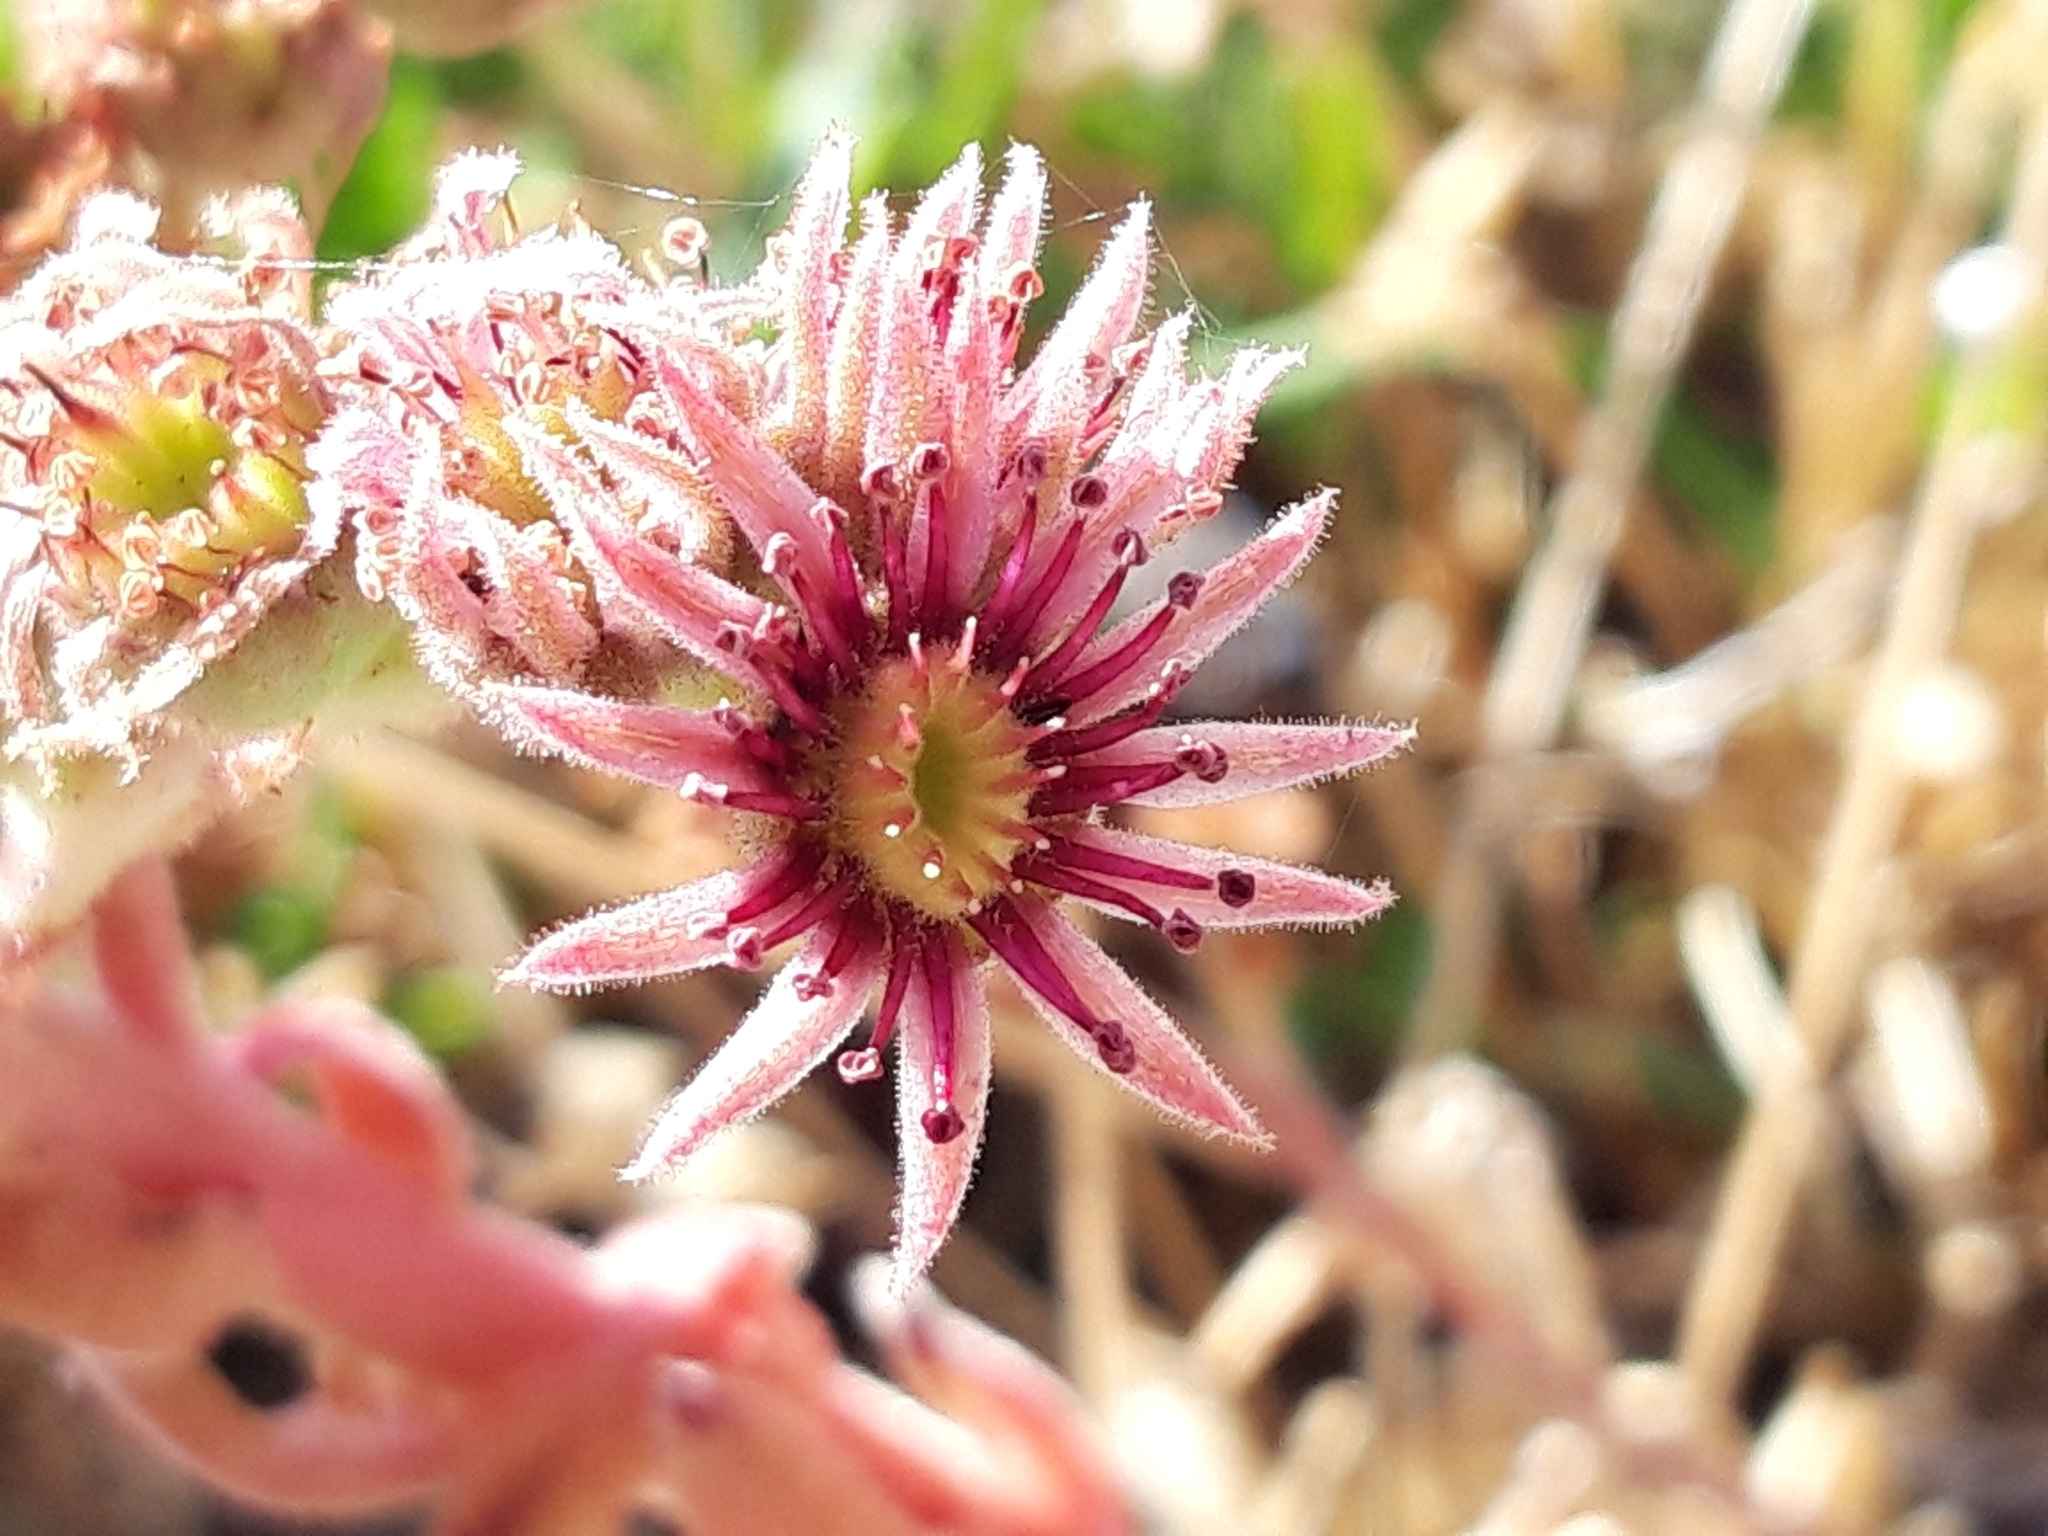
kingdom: Plantae
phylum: Tracheophyta
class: Magnoliopsida
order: Saxifragales
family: Crassulaceae
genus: Sempervivum
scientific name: Sempervivum vicentei
